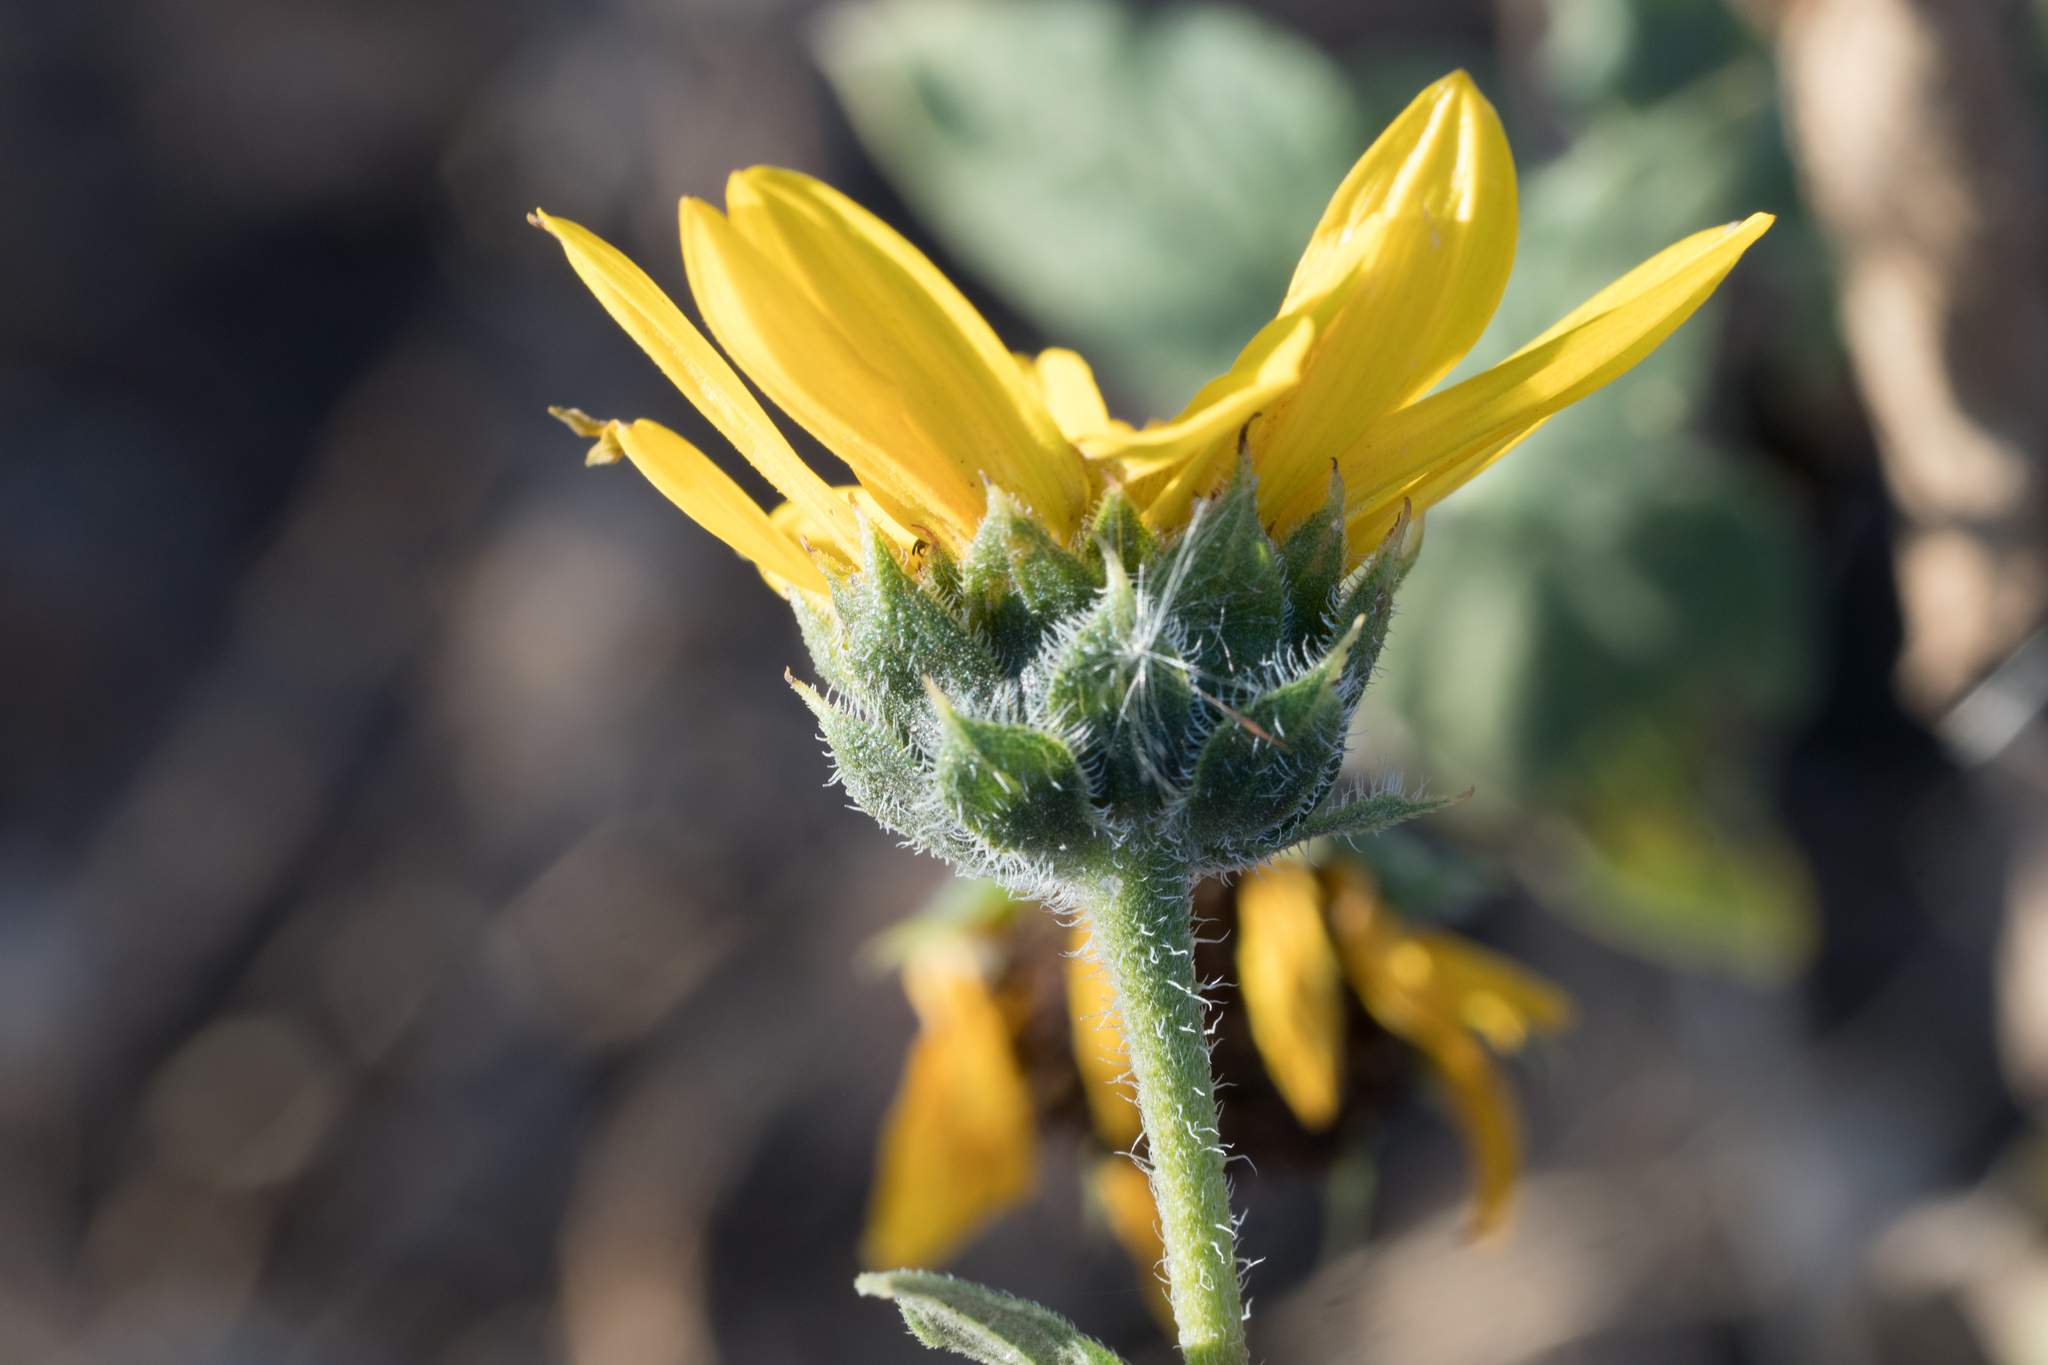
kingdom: Plantae
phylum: Tracheophyta
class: Magnoliopsida
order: Asterales
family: Asteraceae
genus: Helianthus
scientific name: Helianthus annuus
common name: Sunflower
